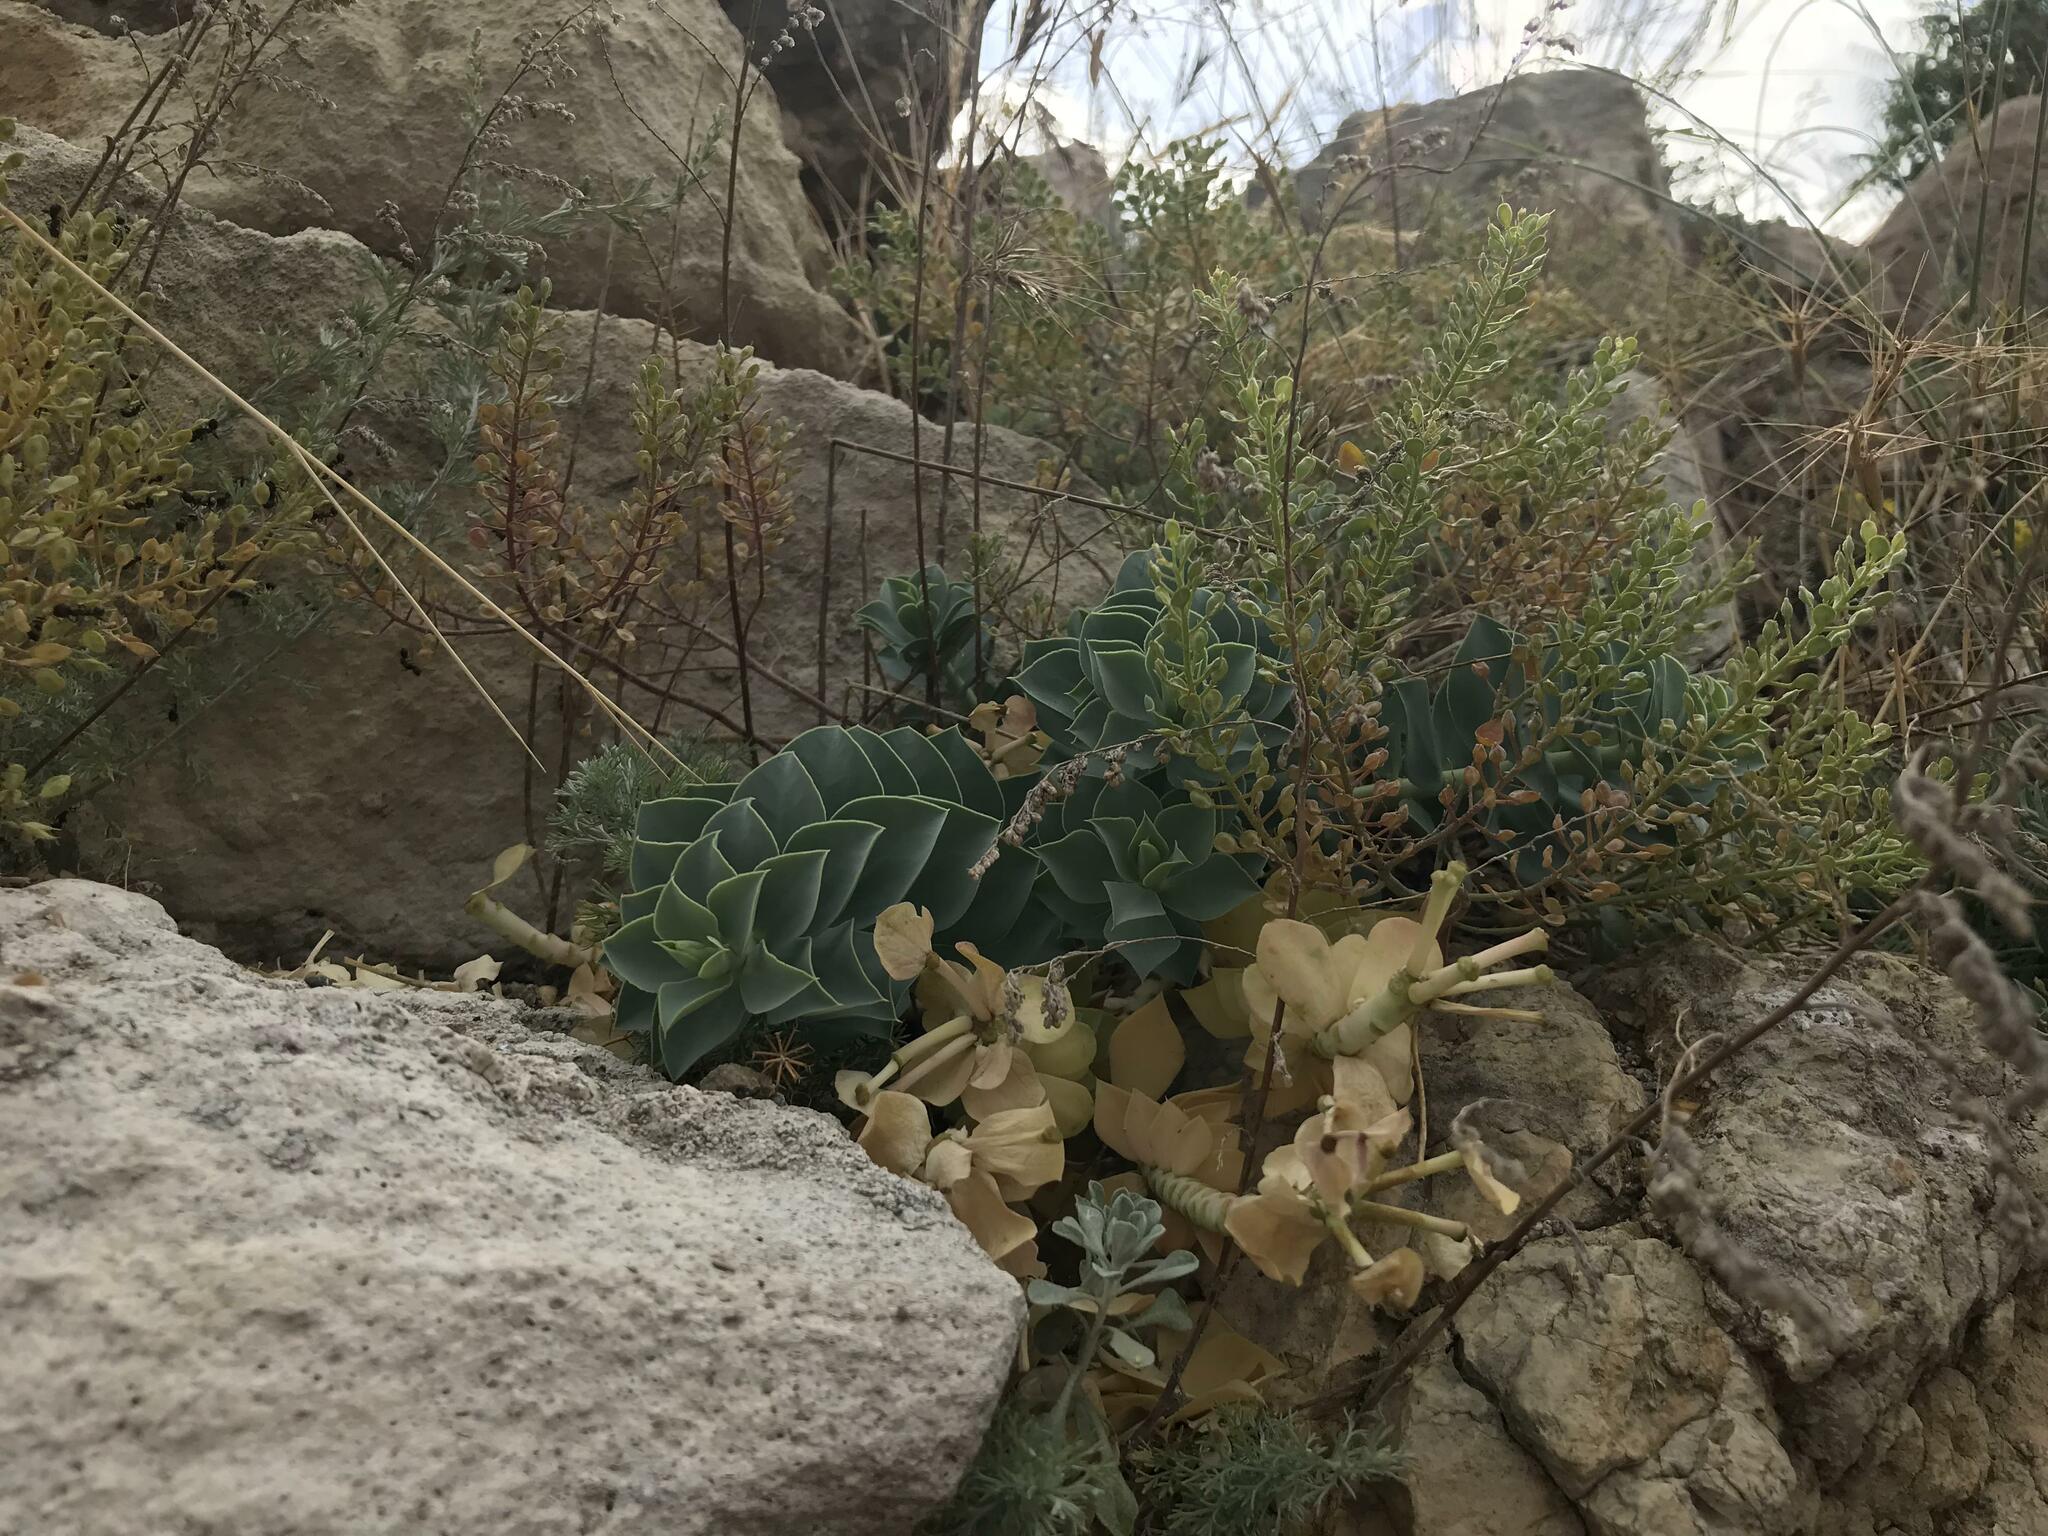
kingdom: Plantae
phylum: Tracheophyta
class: Magnoliopsida
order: Malpighiales
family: Euphorbiaceae
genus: Euphorbia
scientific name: Euphorbia myrsinites
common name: Myrtle spurge
